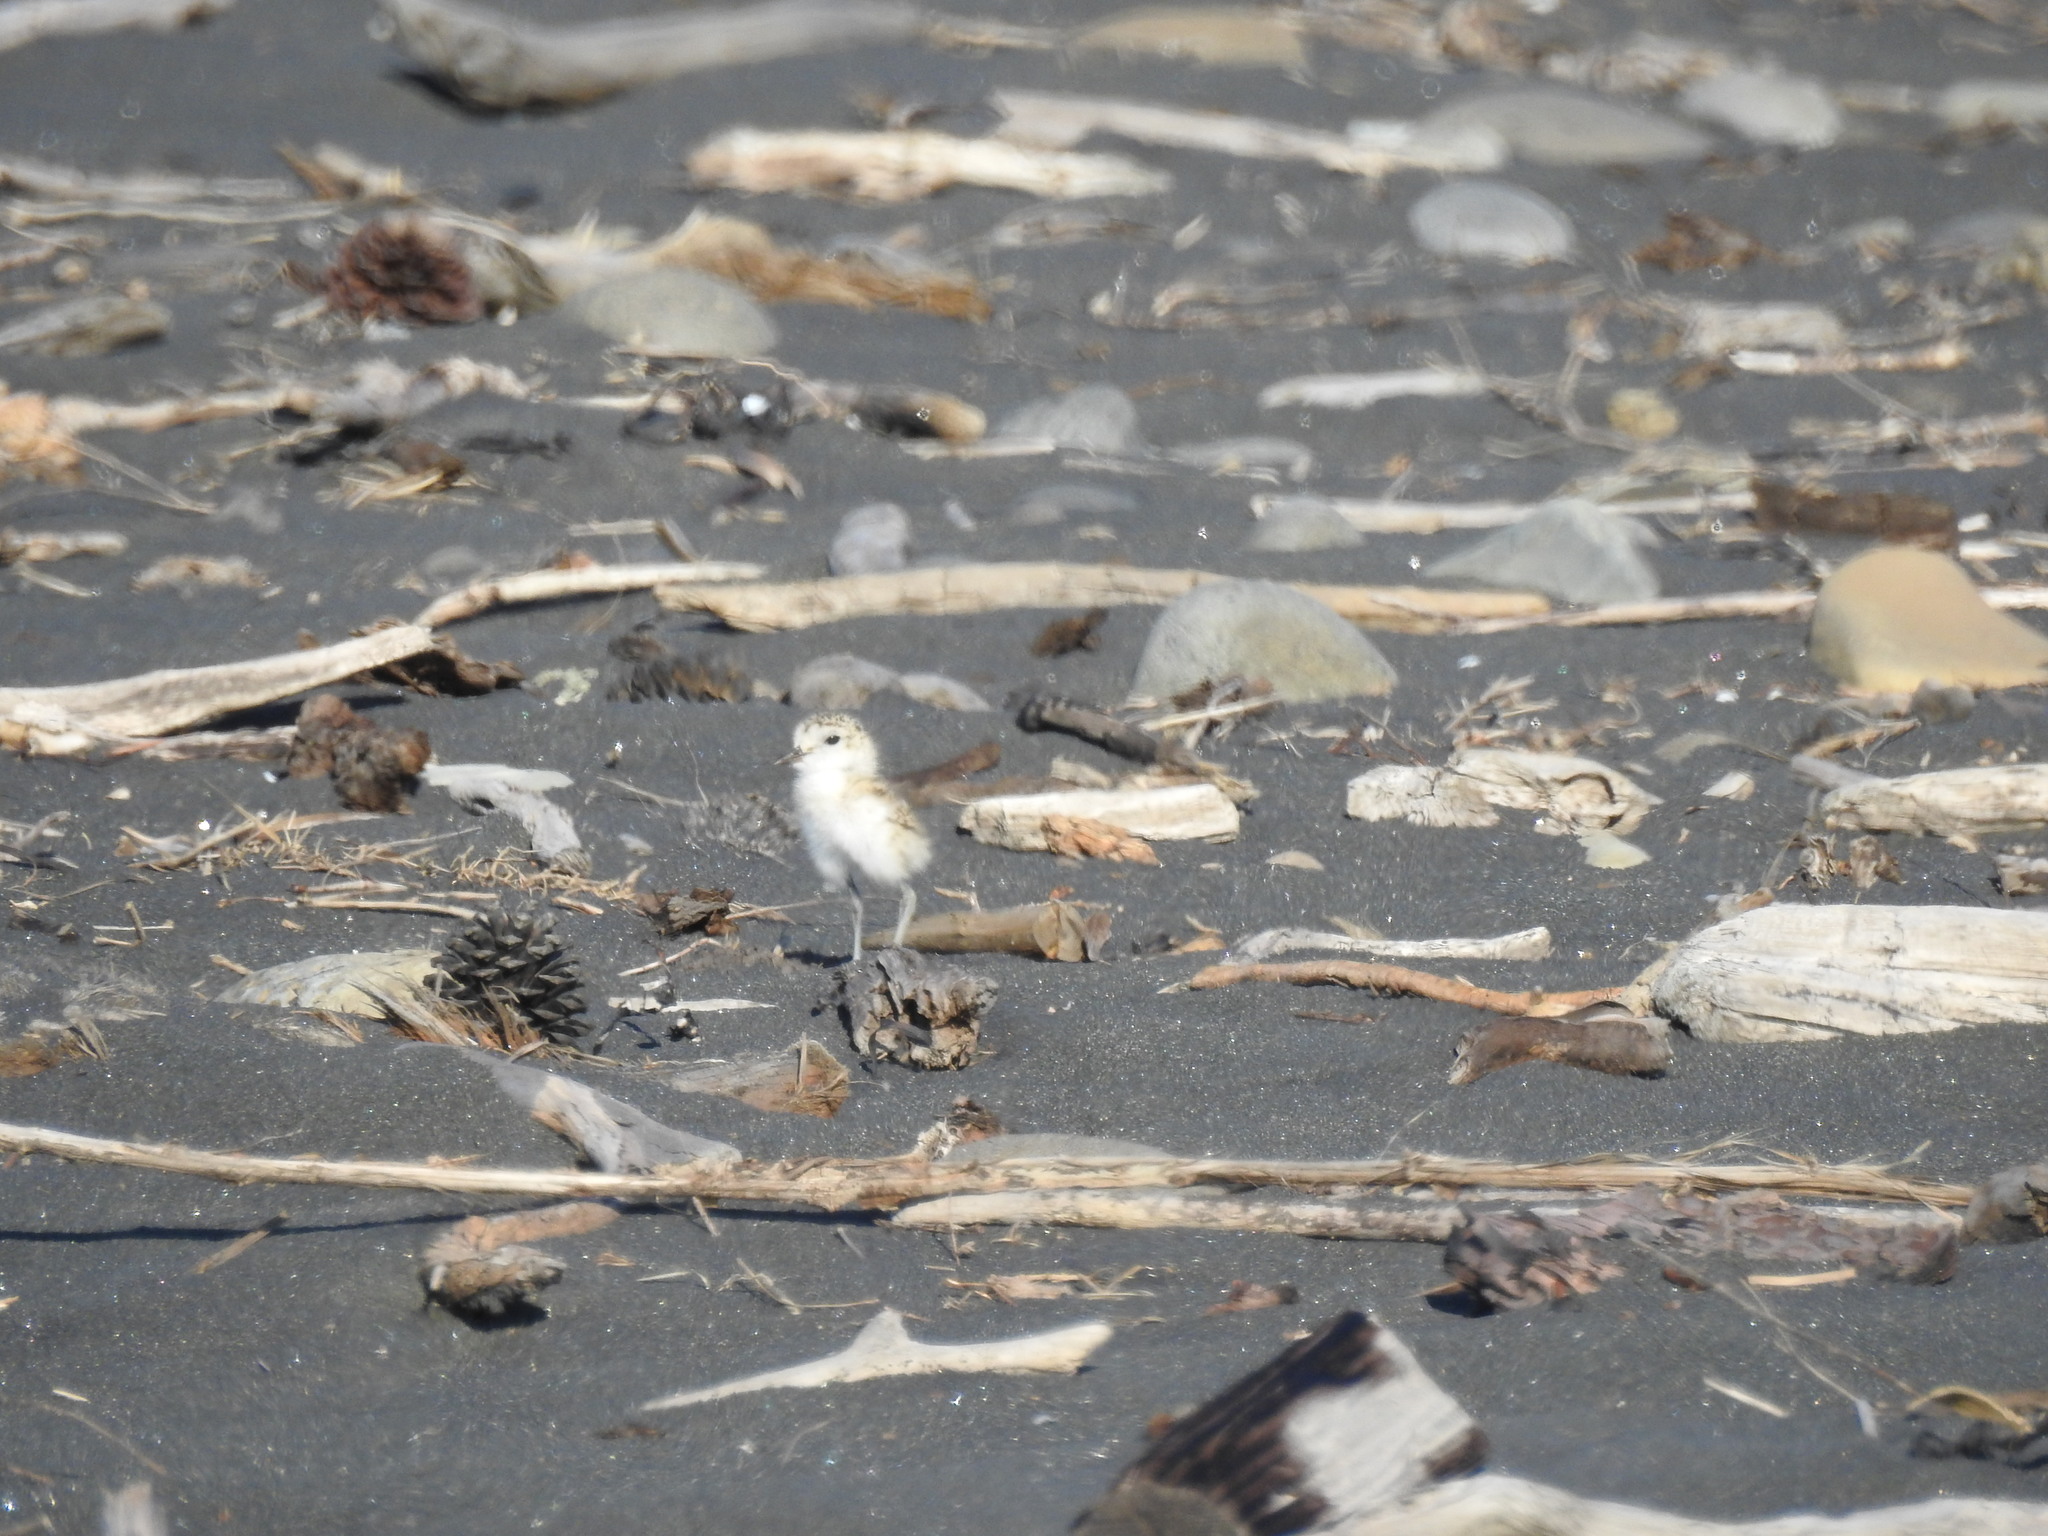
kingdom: Animalia
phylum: Chordata
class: Aves
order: Charadriiformes
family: Charadriidae
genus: Anarhynchus
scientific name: Anarhynchus
